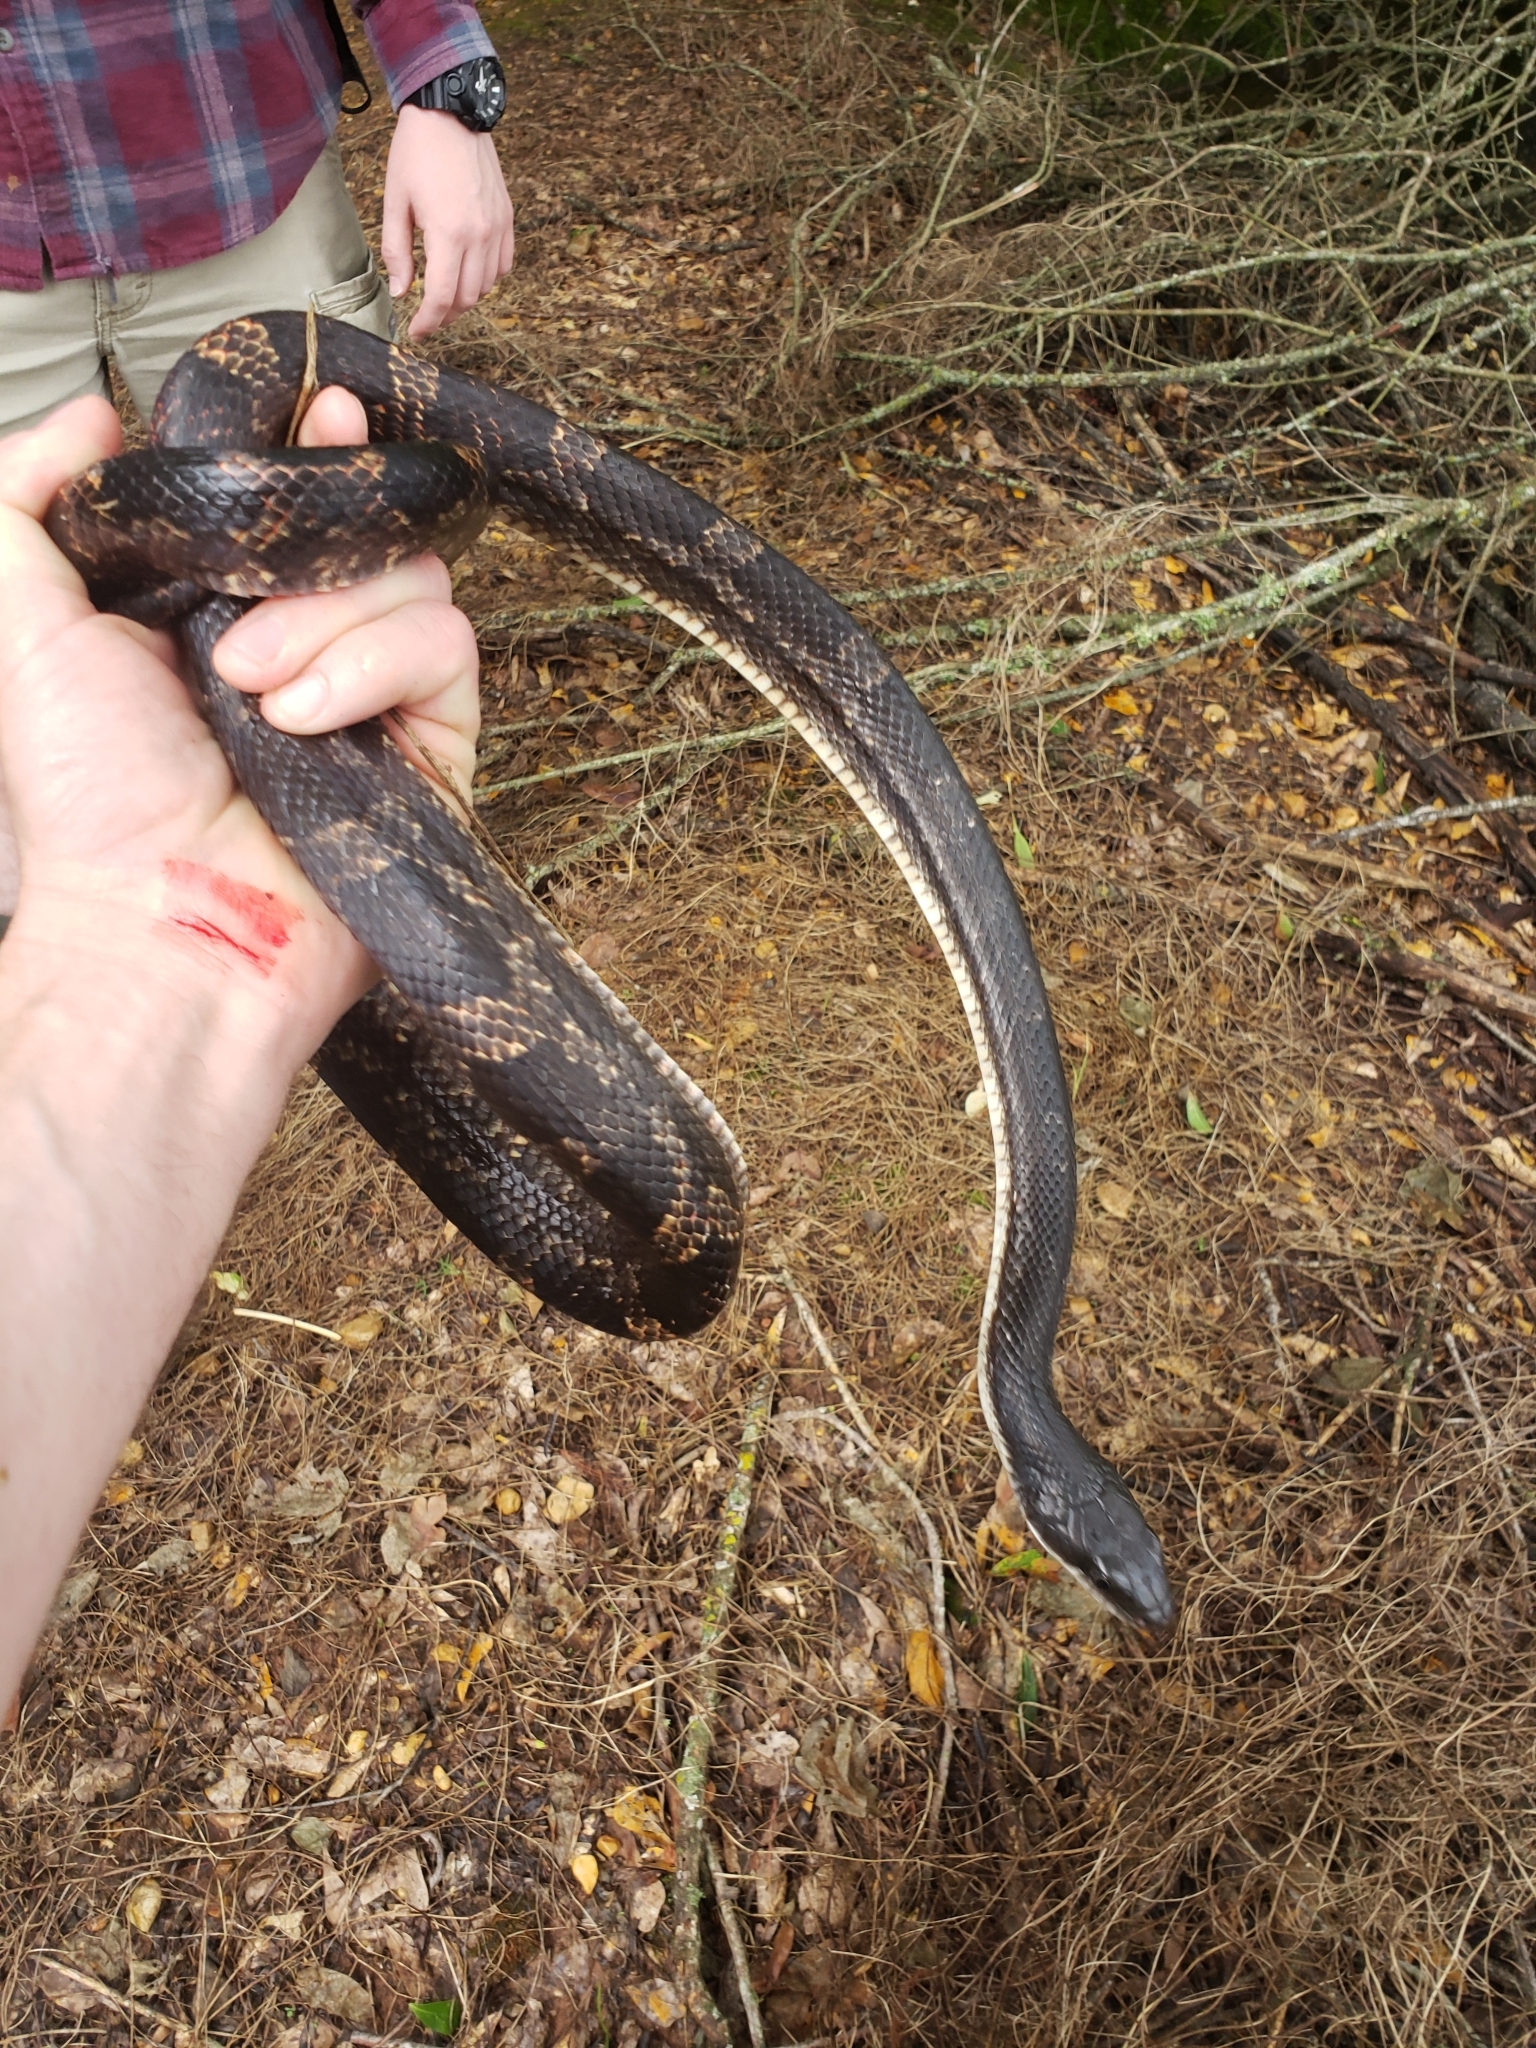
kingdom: Animalia
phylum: Chordata
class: Squamata
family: Colubridae
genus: Pantherophis
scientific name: Pantherophis obsoletus
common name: Black rat snake
